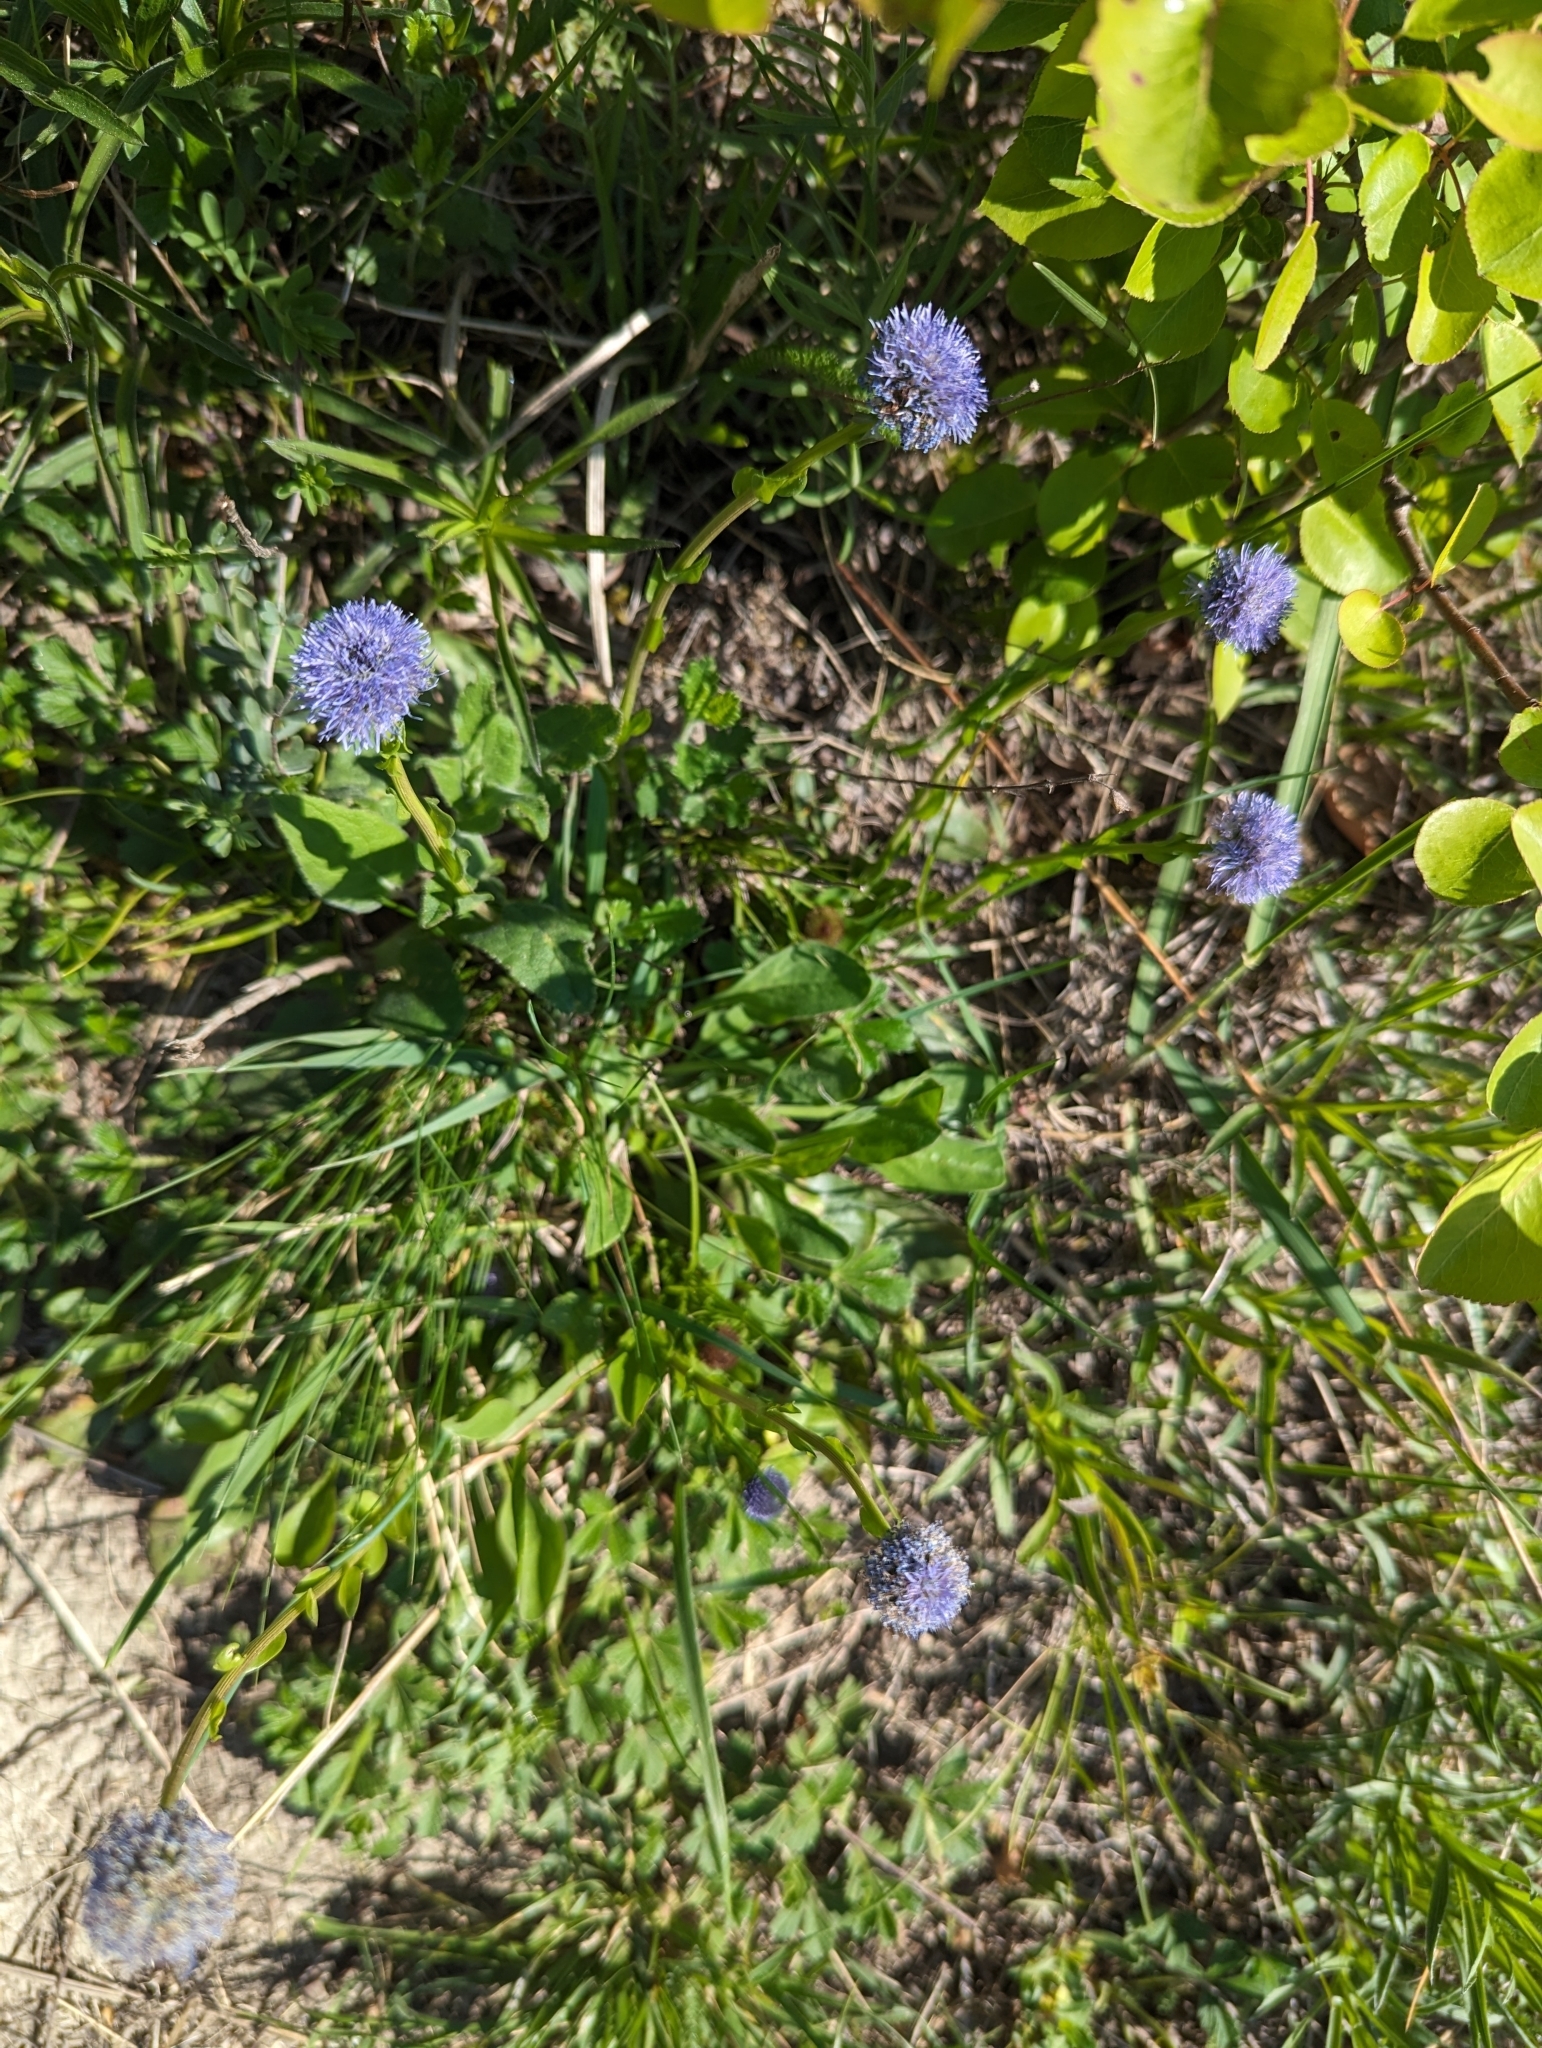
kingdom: Plantae
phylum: Tracheophyta
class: Magnoliopsida
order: Lamiales
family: Plantaginaceae
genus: Globularia
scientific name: Globularia bisnagarica
